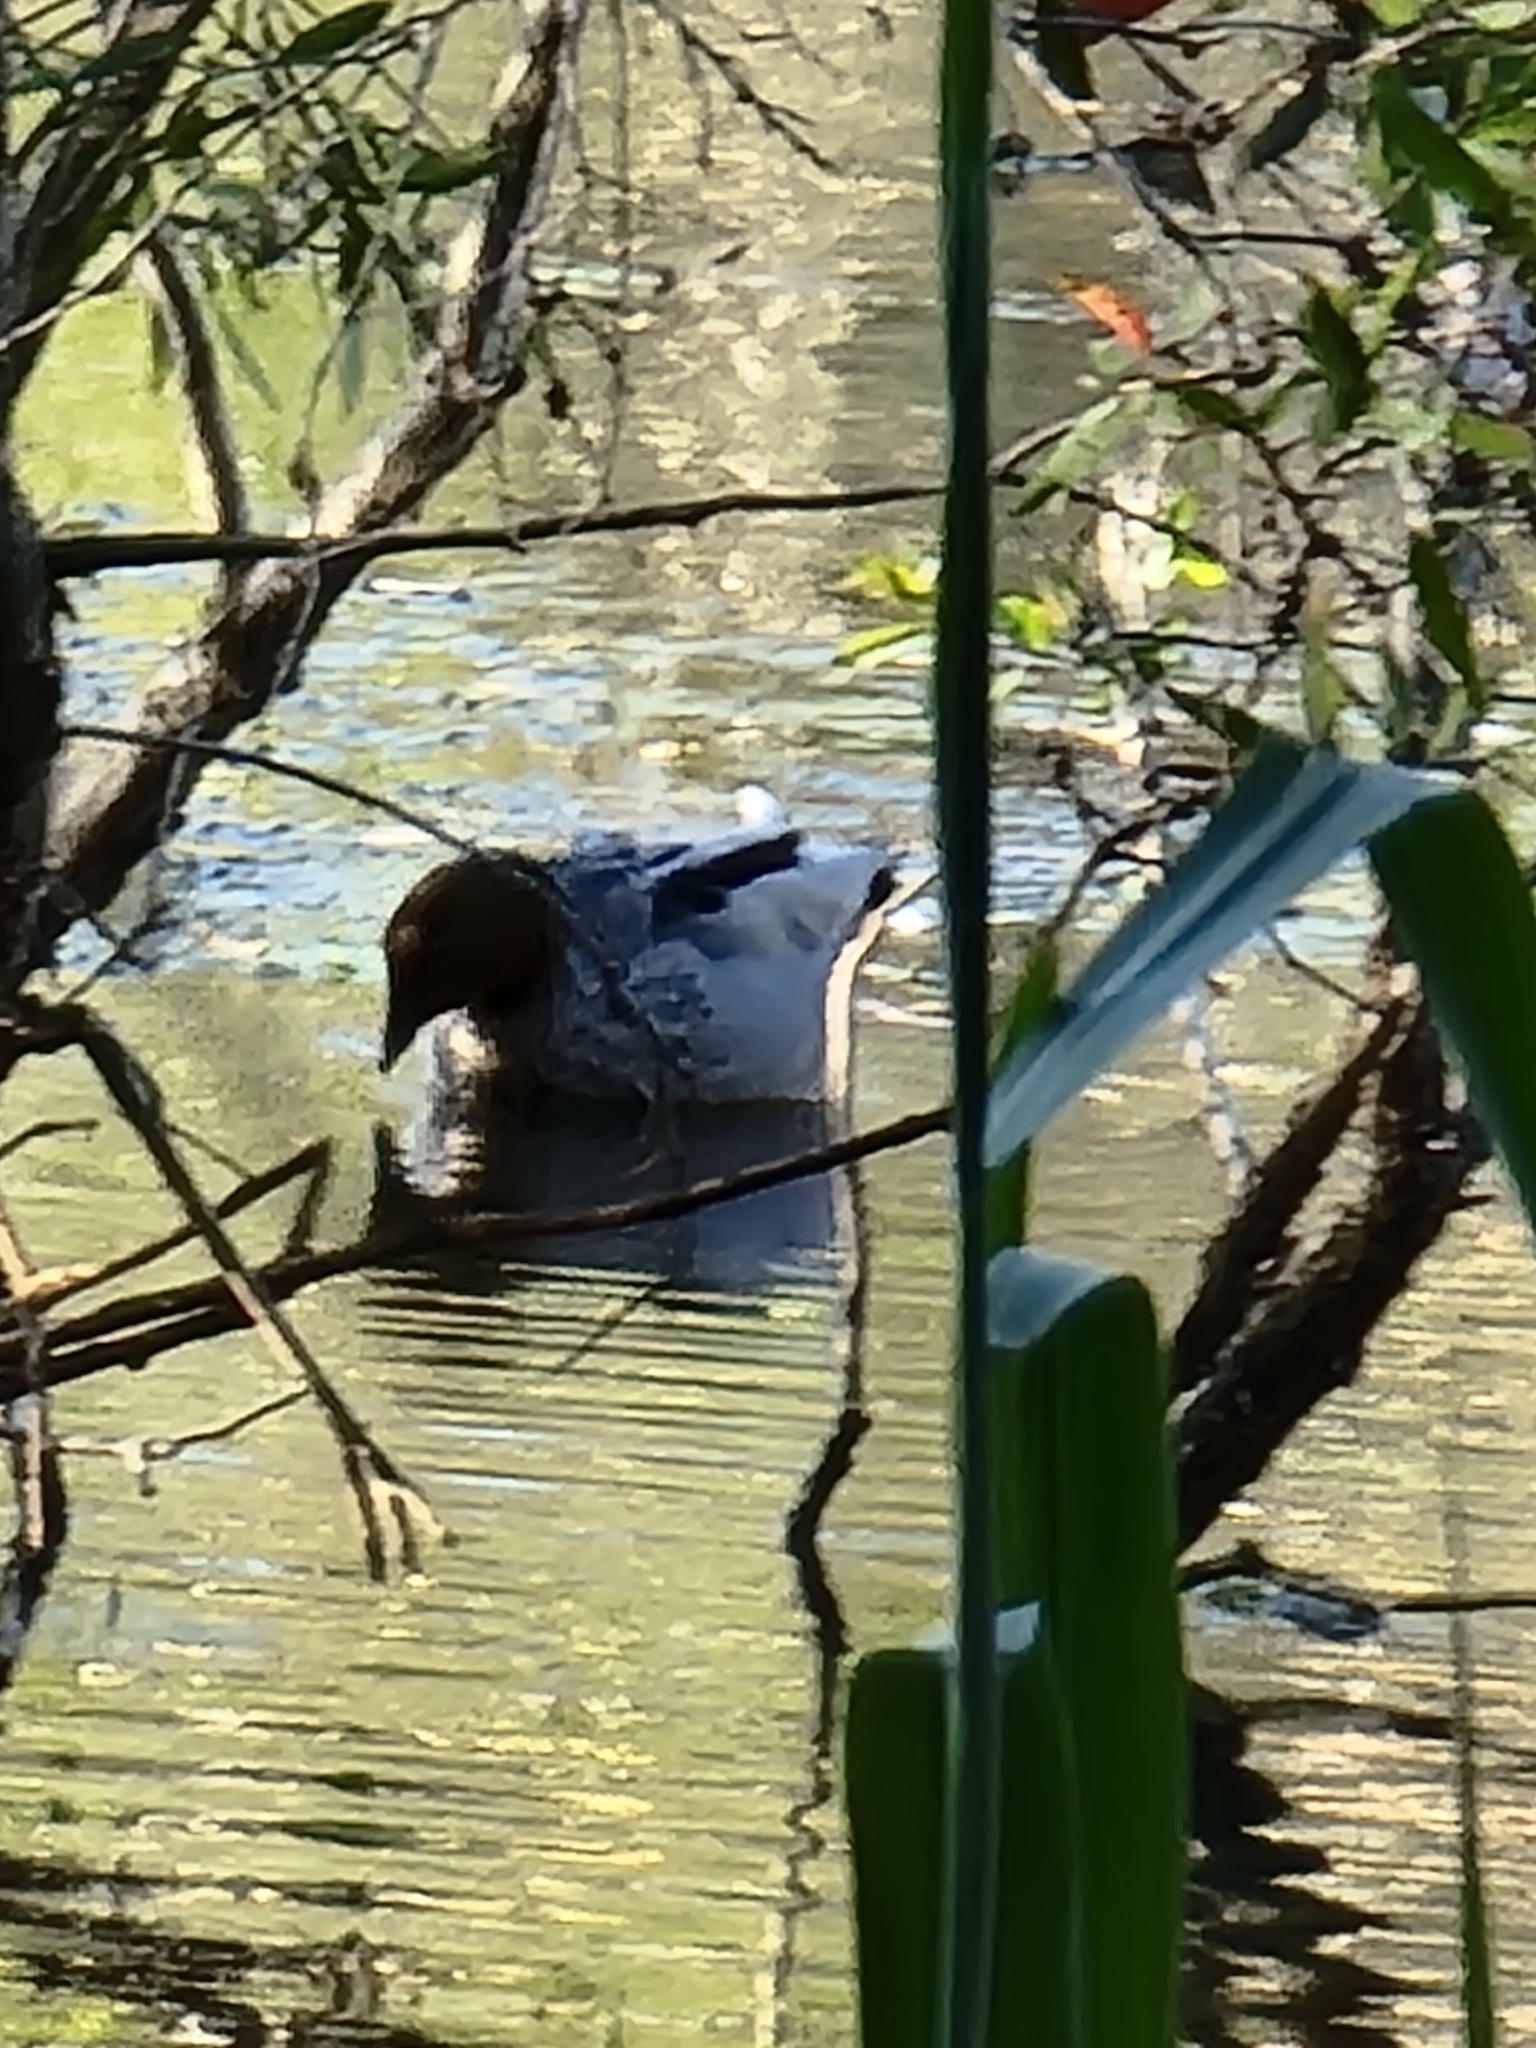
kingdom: Animalia
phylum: Chordata
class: Aves
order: Anseriformes
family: Anatidae
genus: Chenonetta
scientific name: Chenonetta jubata
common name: Maned duck
